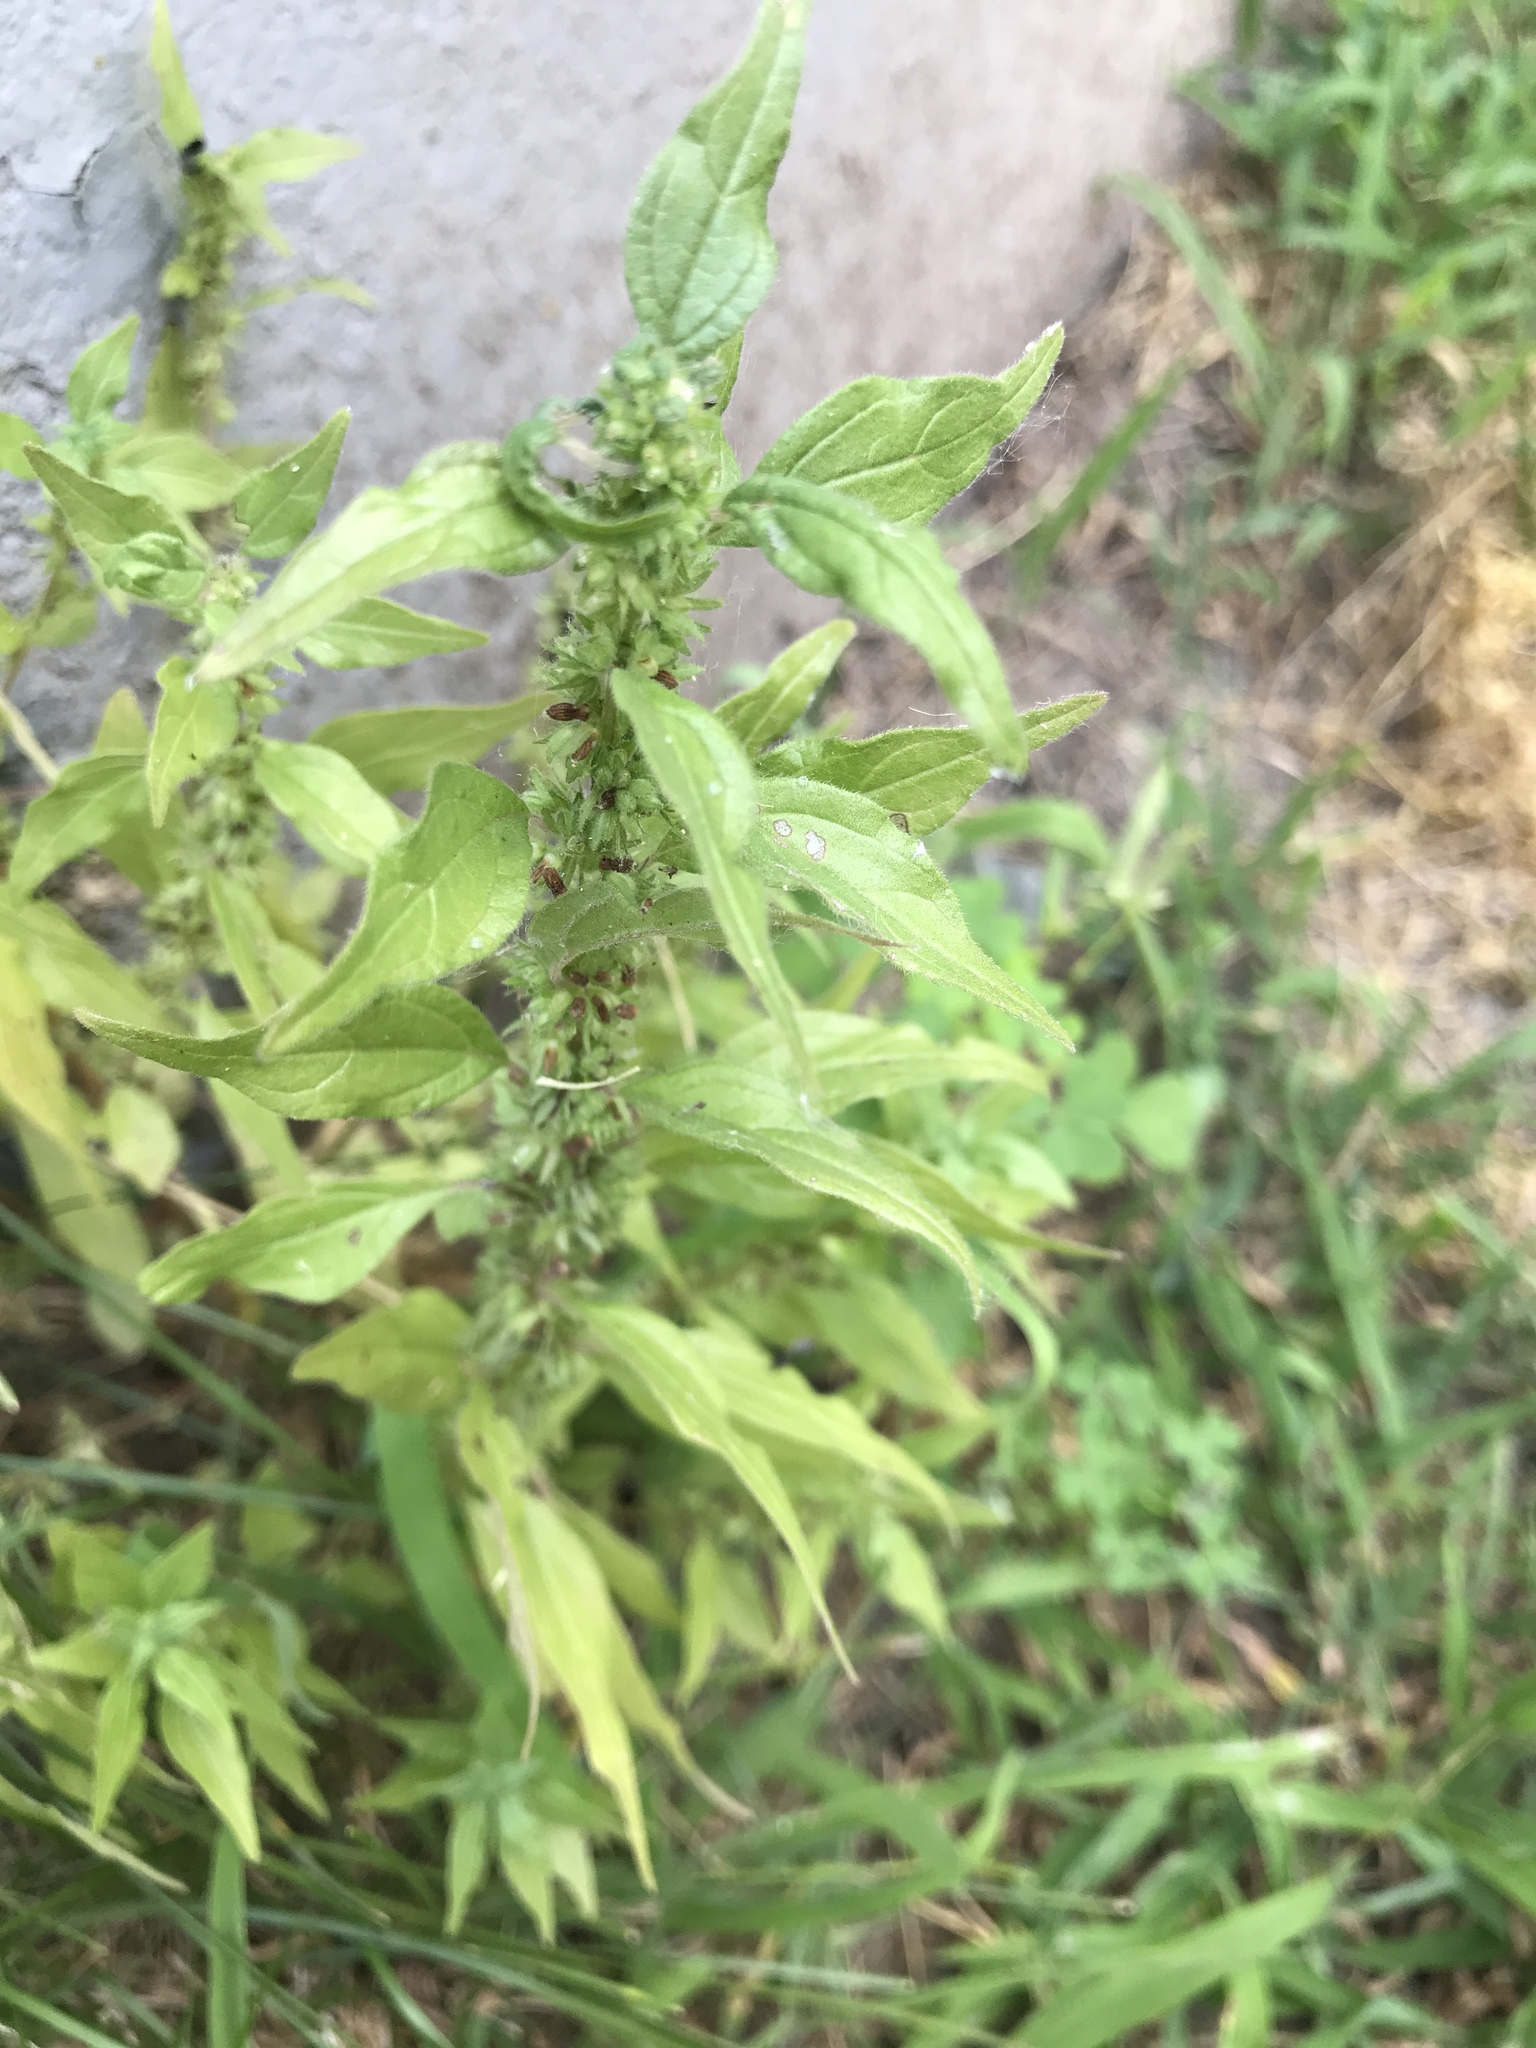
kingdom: Plantae
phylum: Tracheophyta
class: Magnoliopsida
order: Rosales
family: Urticaceae
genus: Parietaria
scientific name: Parietaria pensylvanica
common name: Pennsylvania pellitory
